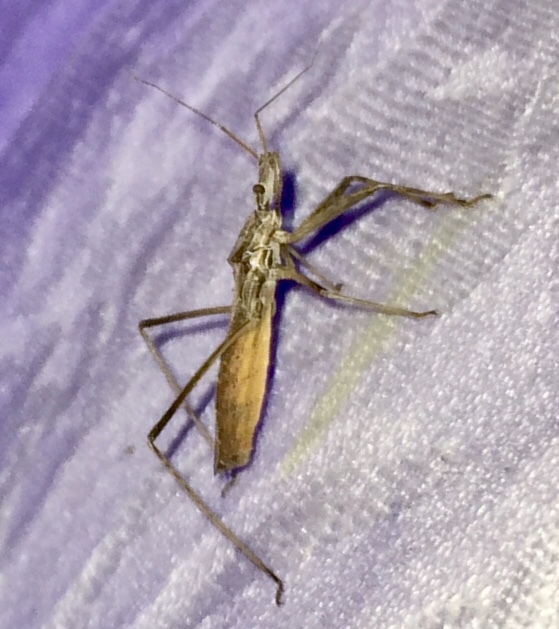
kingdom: Animalia
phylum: Arthropoda
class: Insecta
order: Hemiptera
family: Reduviidae
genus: Stenopoda
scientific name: Stenopoda spinulosa
